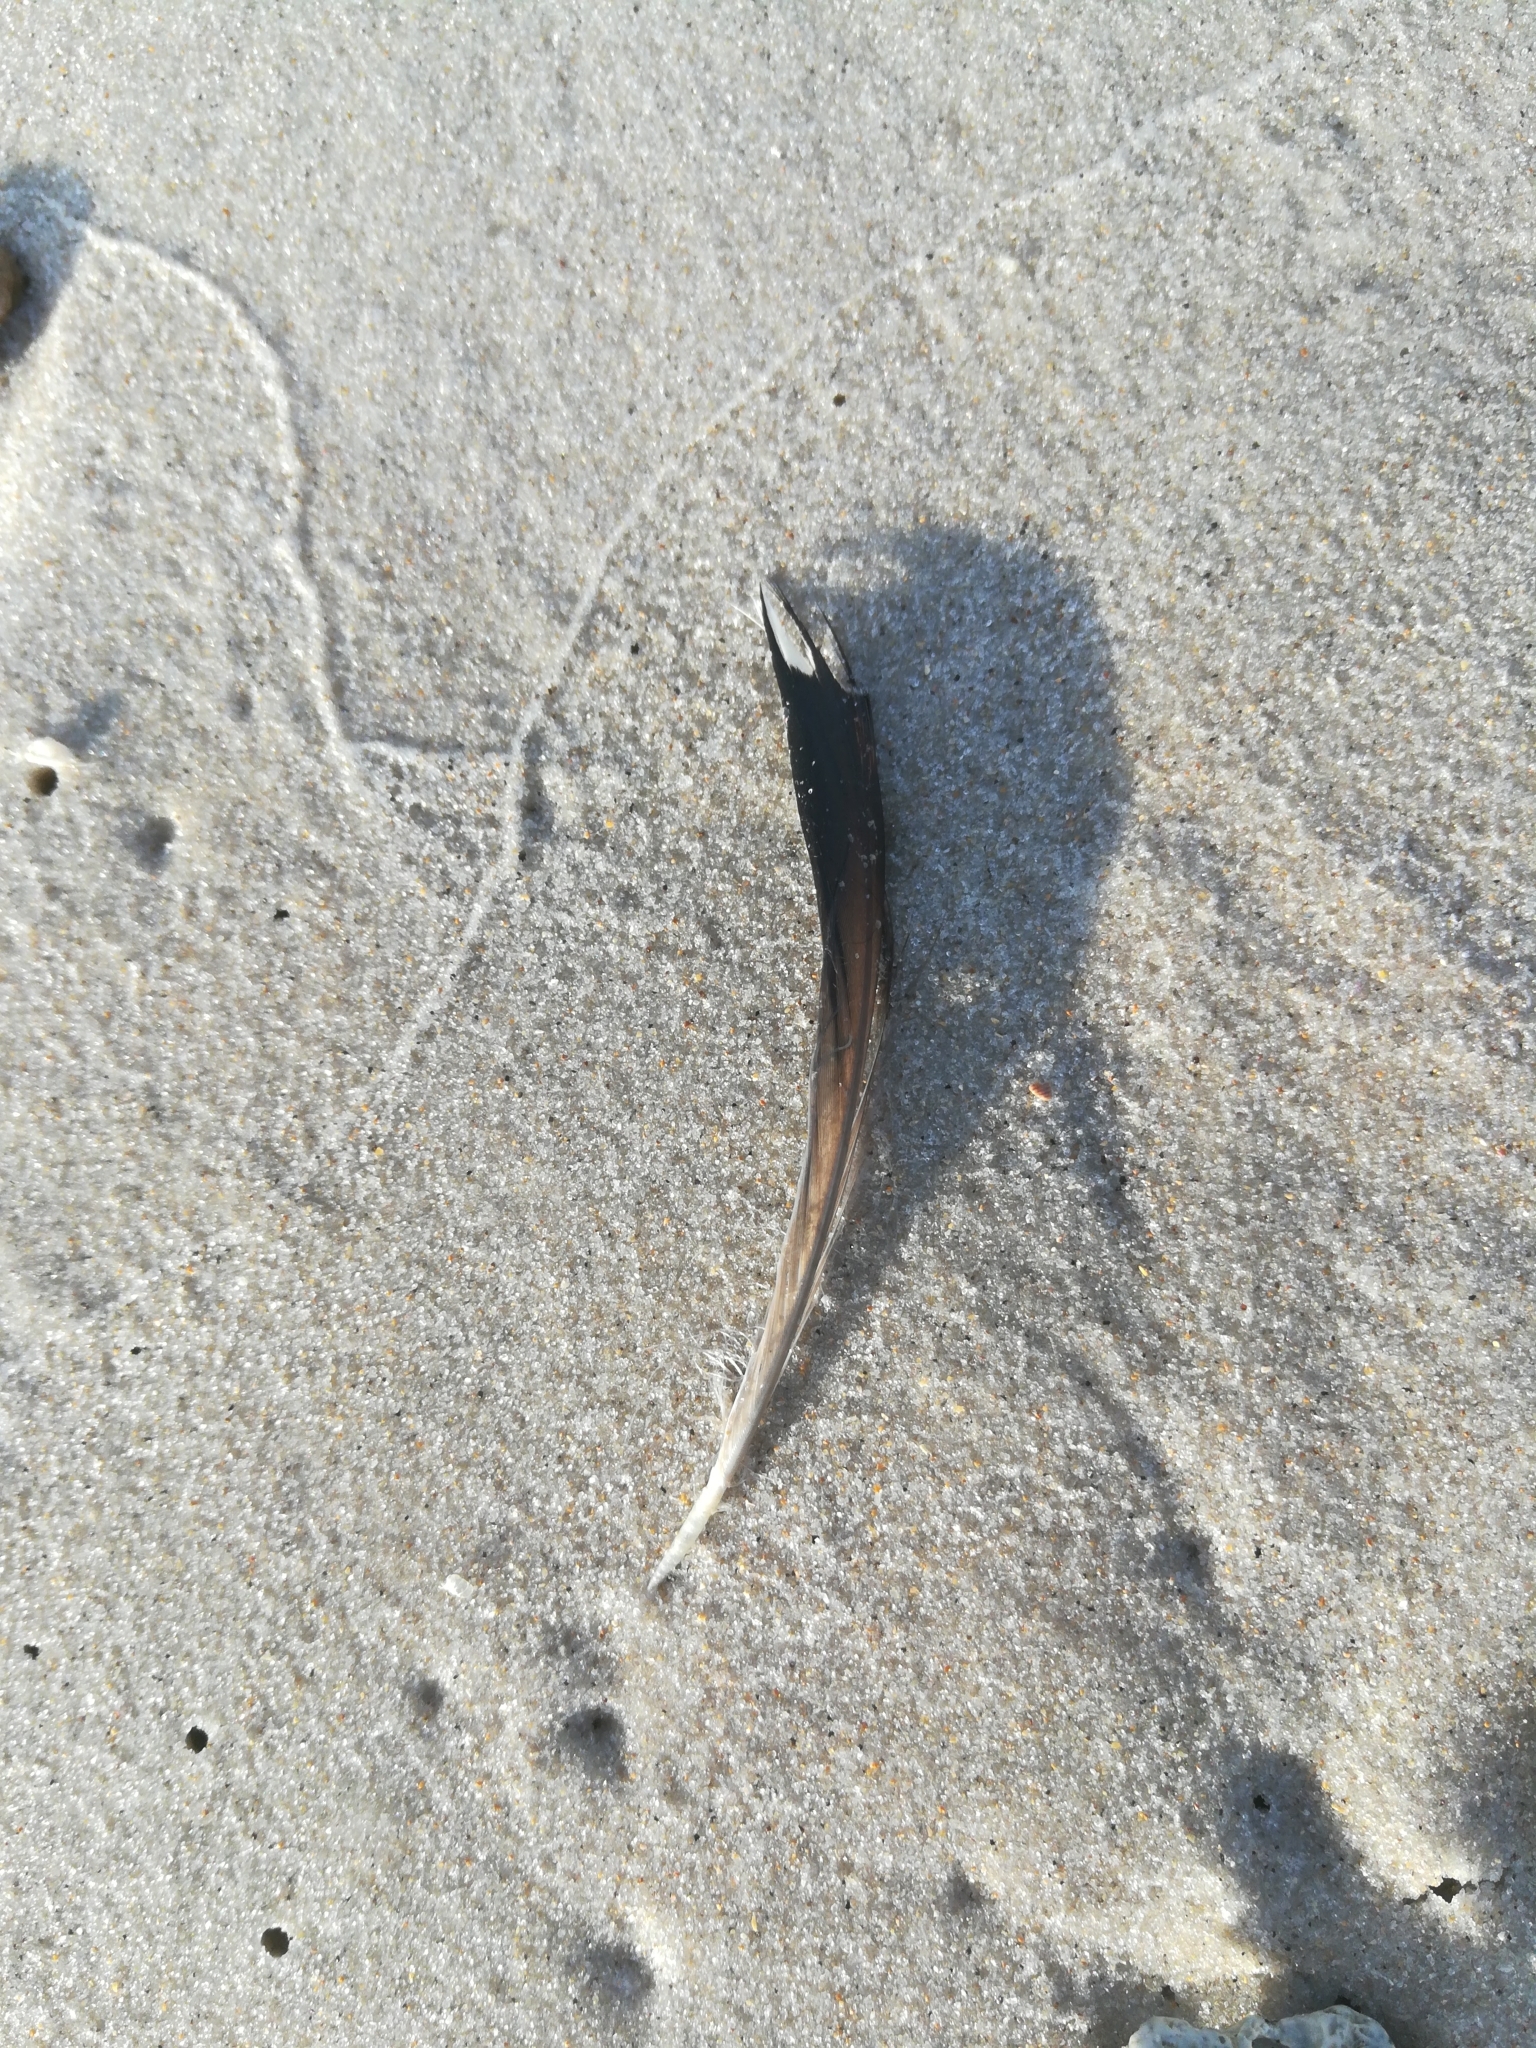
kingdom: Animalia
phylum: Chordata
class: Aves
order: Gaviiformes
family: Gaviidae
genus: Gavia
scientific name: Gavia immer
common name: Common loon
